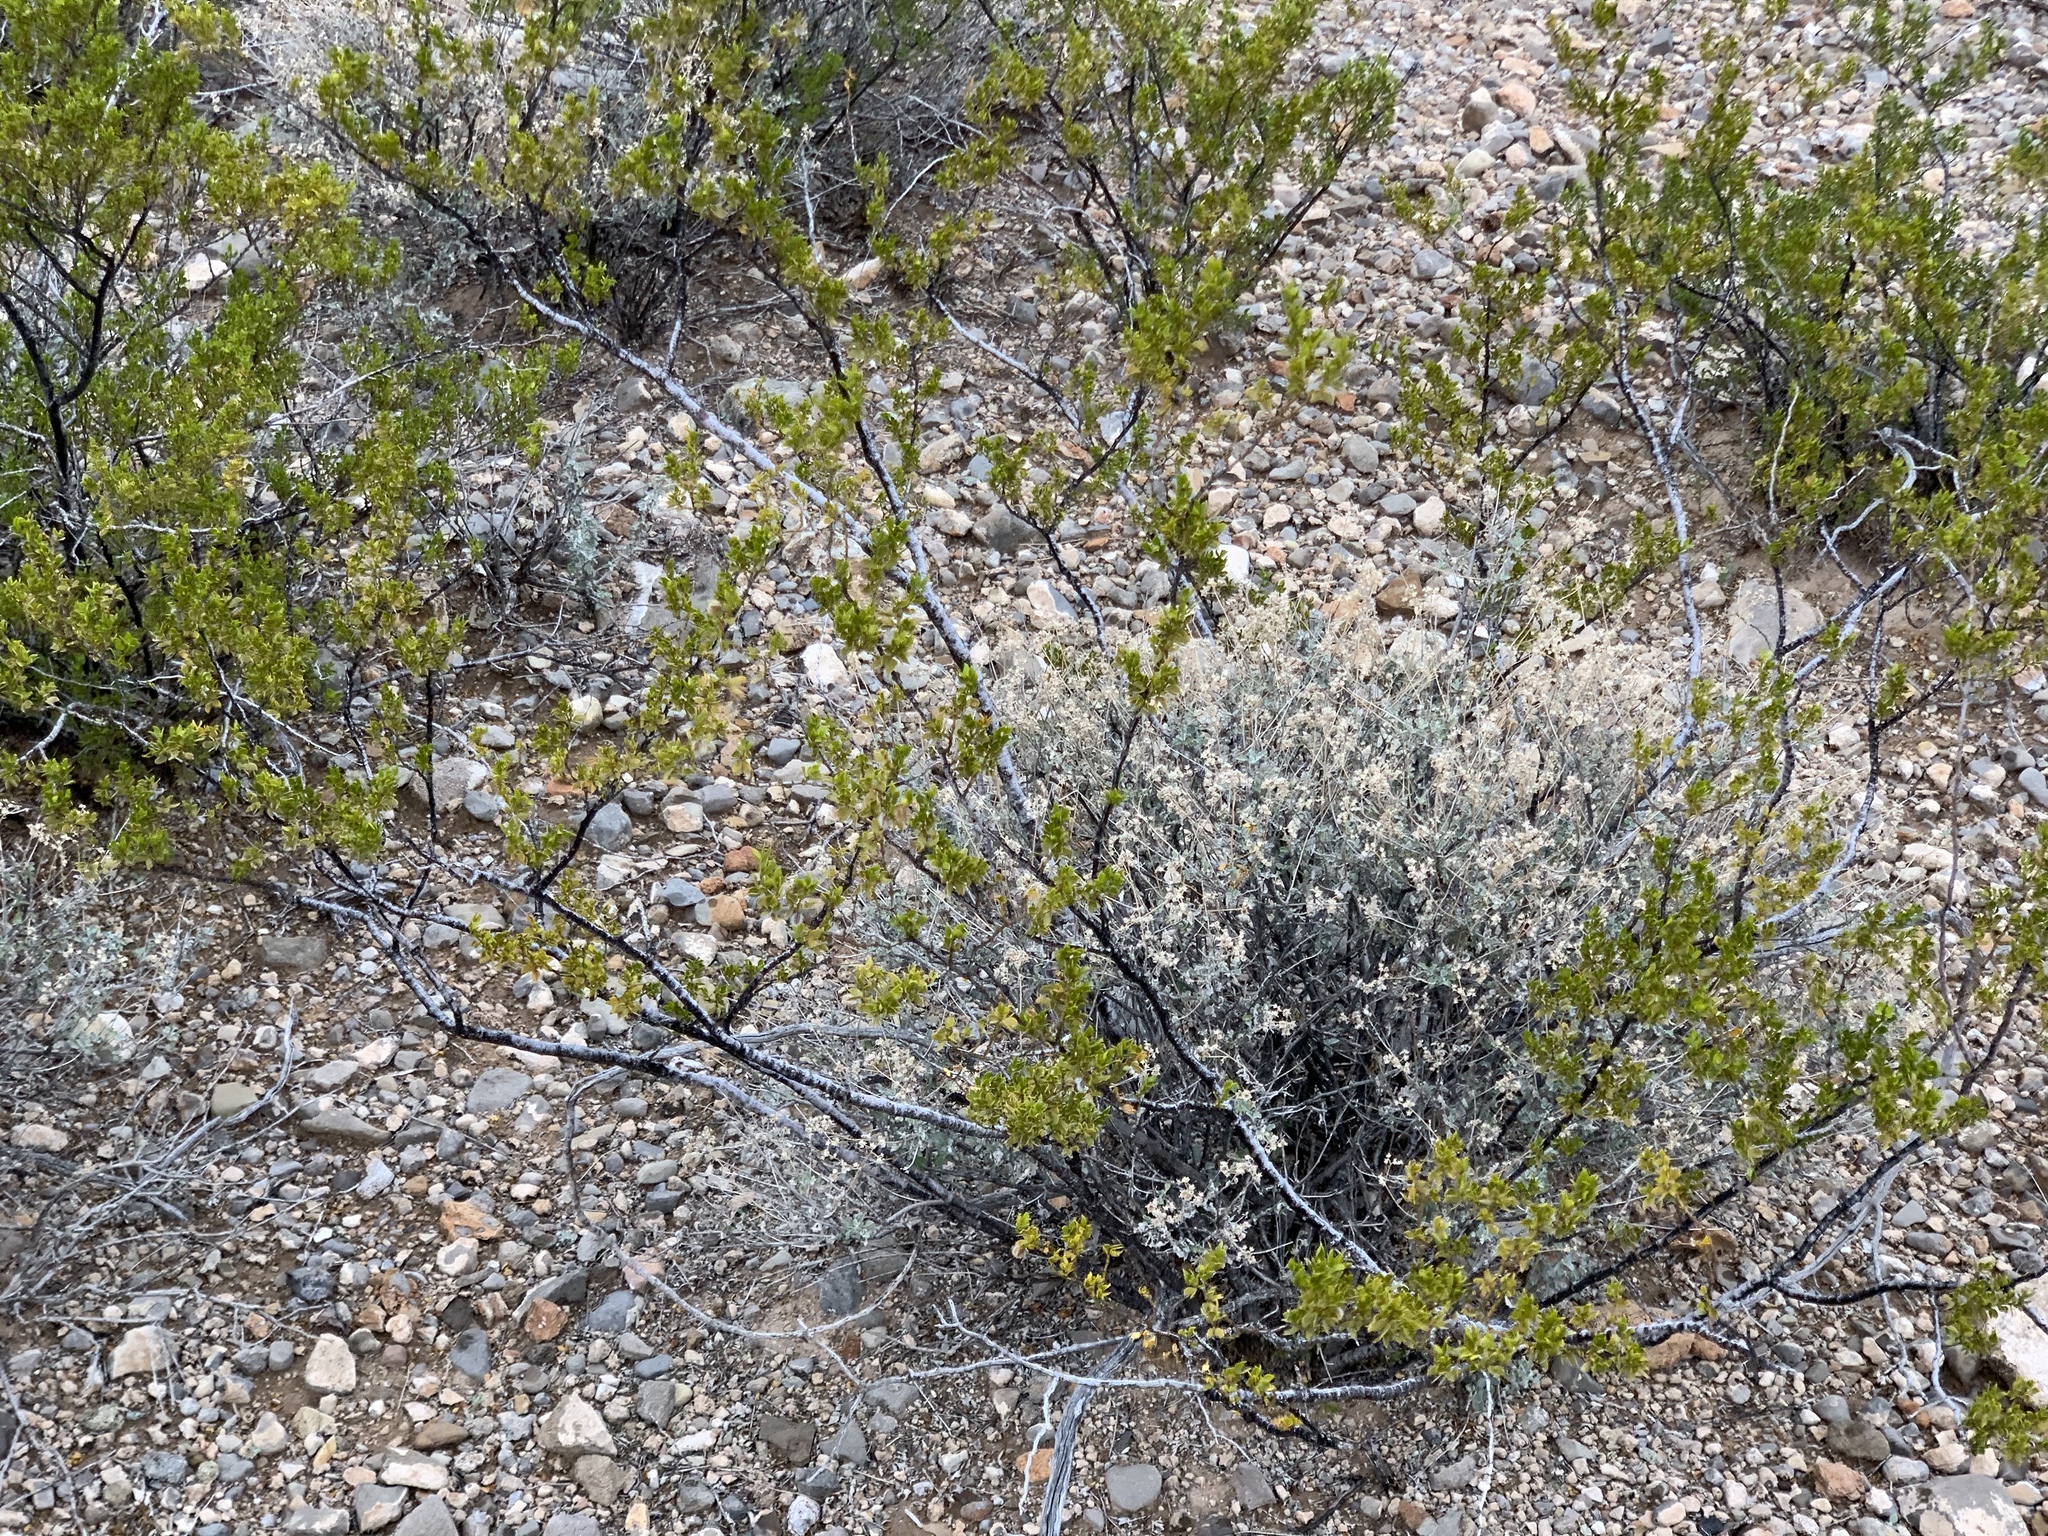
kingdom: Plantae
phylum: Tracheophyta
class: Magnoliopsida
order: Zygophyllales
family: Zygophyllaceae
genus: Larrea
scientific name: Larrea tridentata
